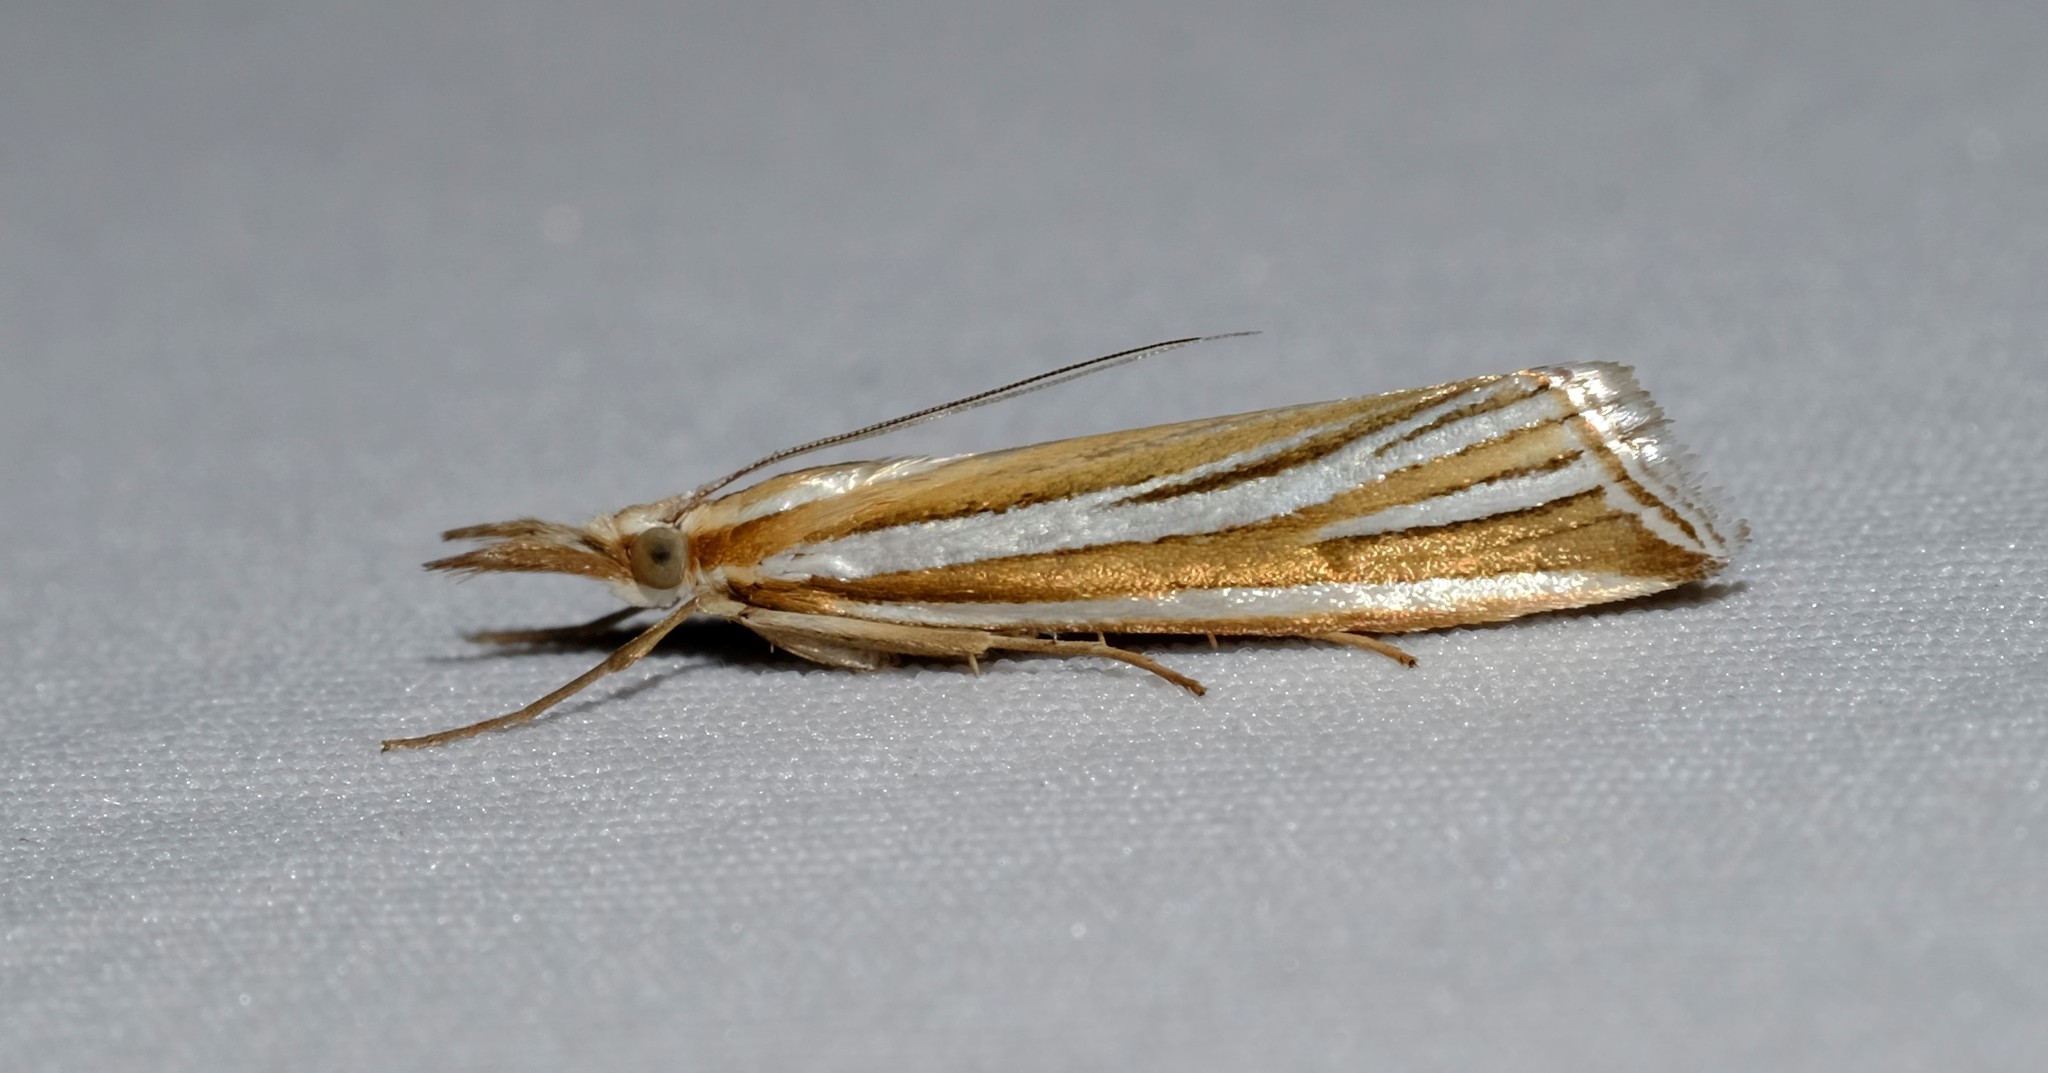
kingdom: Animalia
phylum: Arthropoda
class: Insecta
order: Lepidoptera
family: Crambidae
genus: Hednota
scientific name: Hednota relatalis
